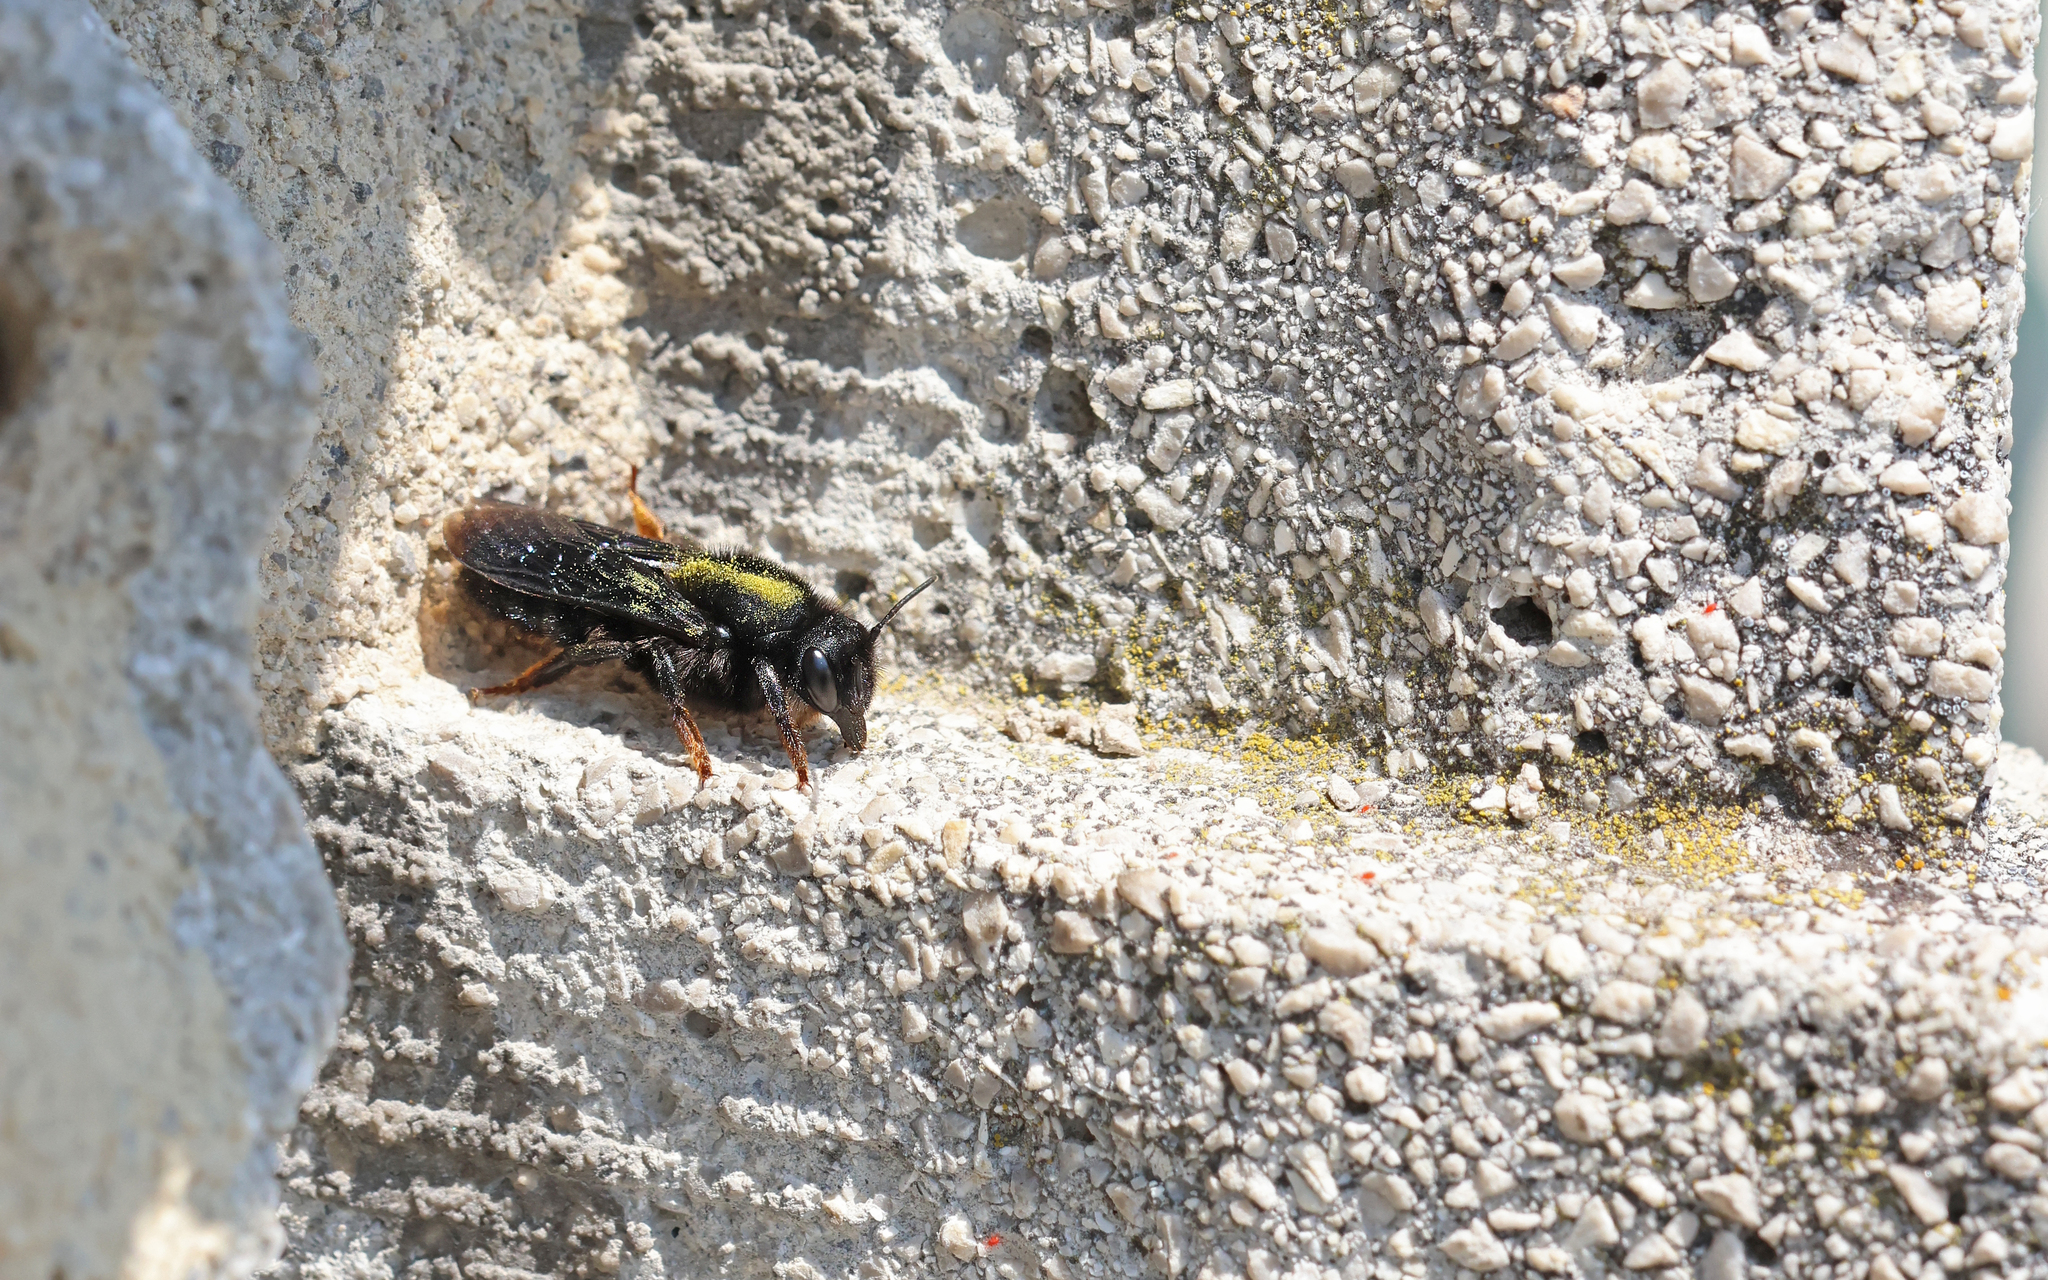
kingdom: Animalia
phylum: Arthropoda
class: Insecta
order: Hymenoptera
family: Megachilidae
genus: Megachile
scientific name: Megachile parietina
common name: Black mud bee
